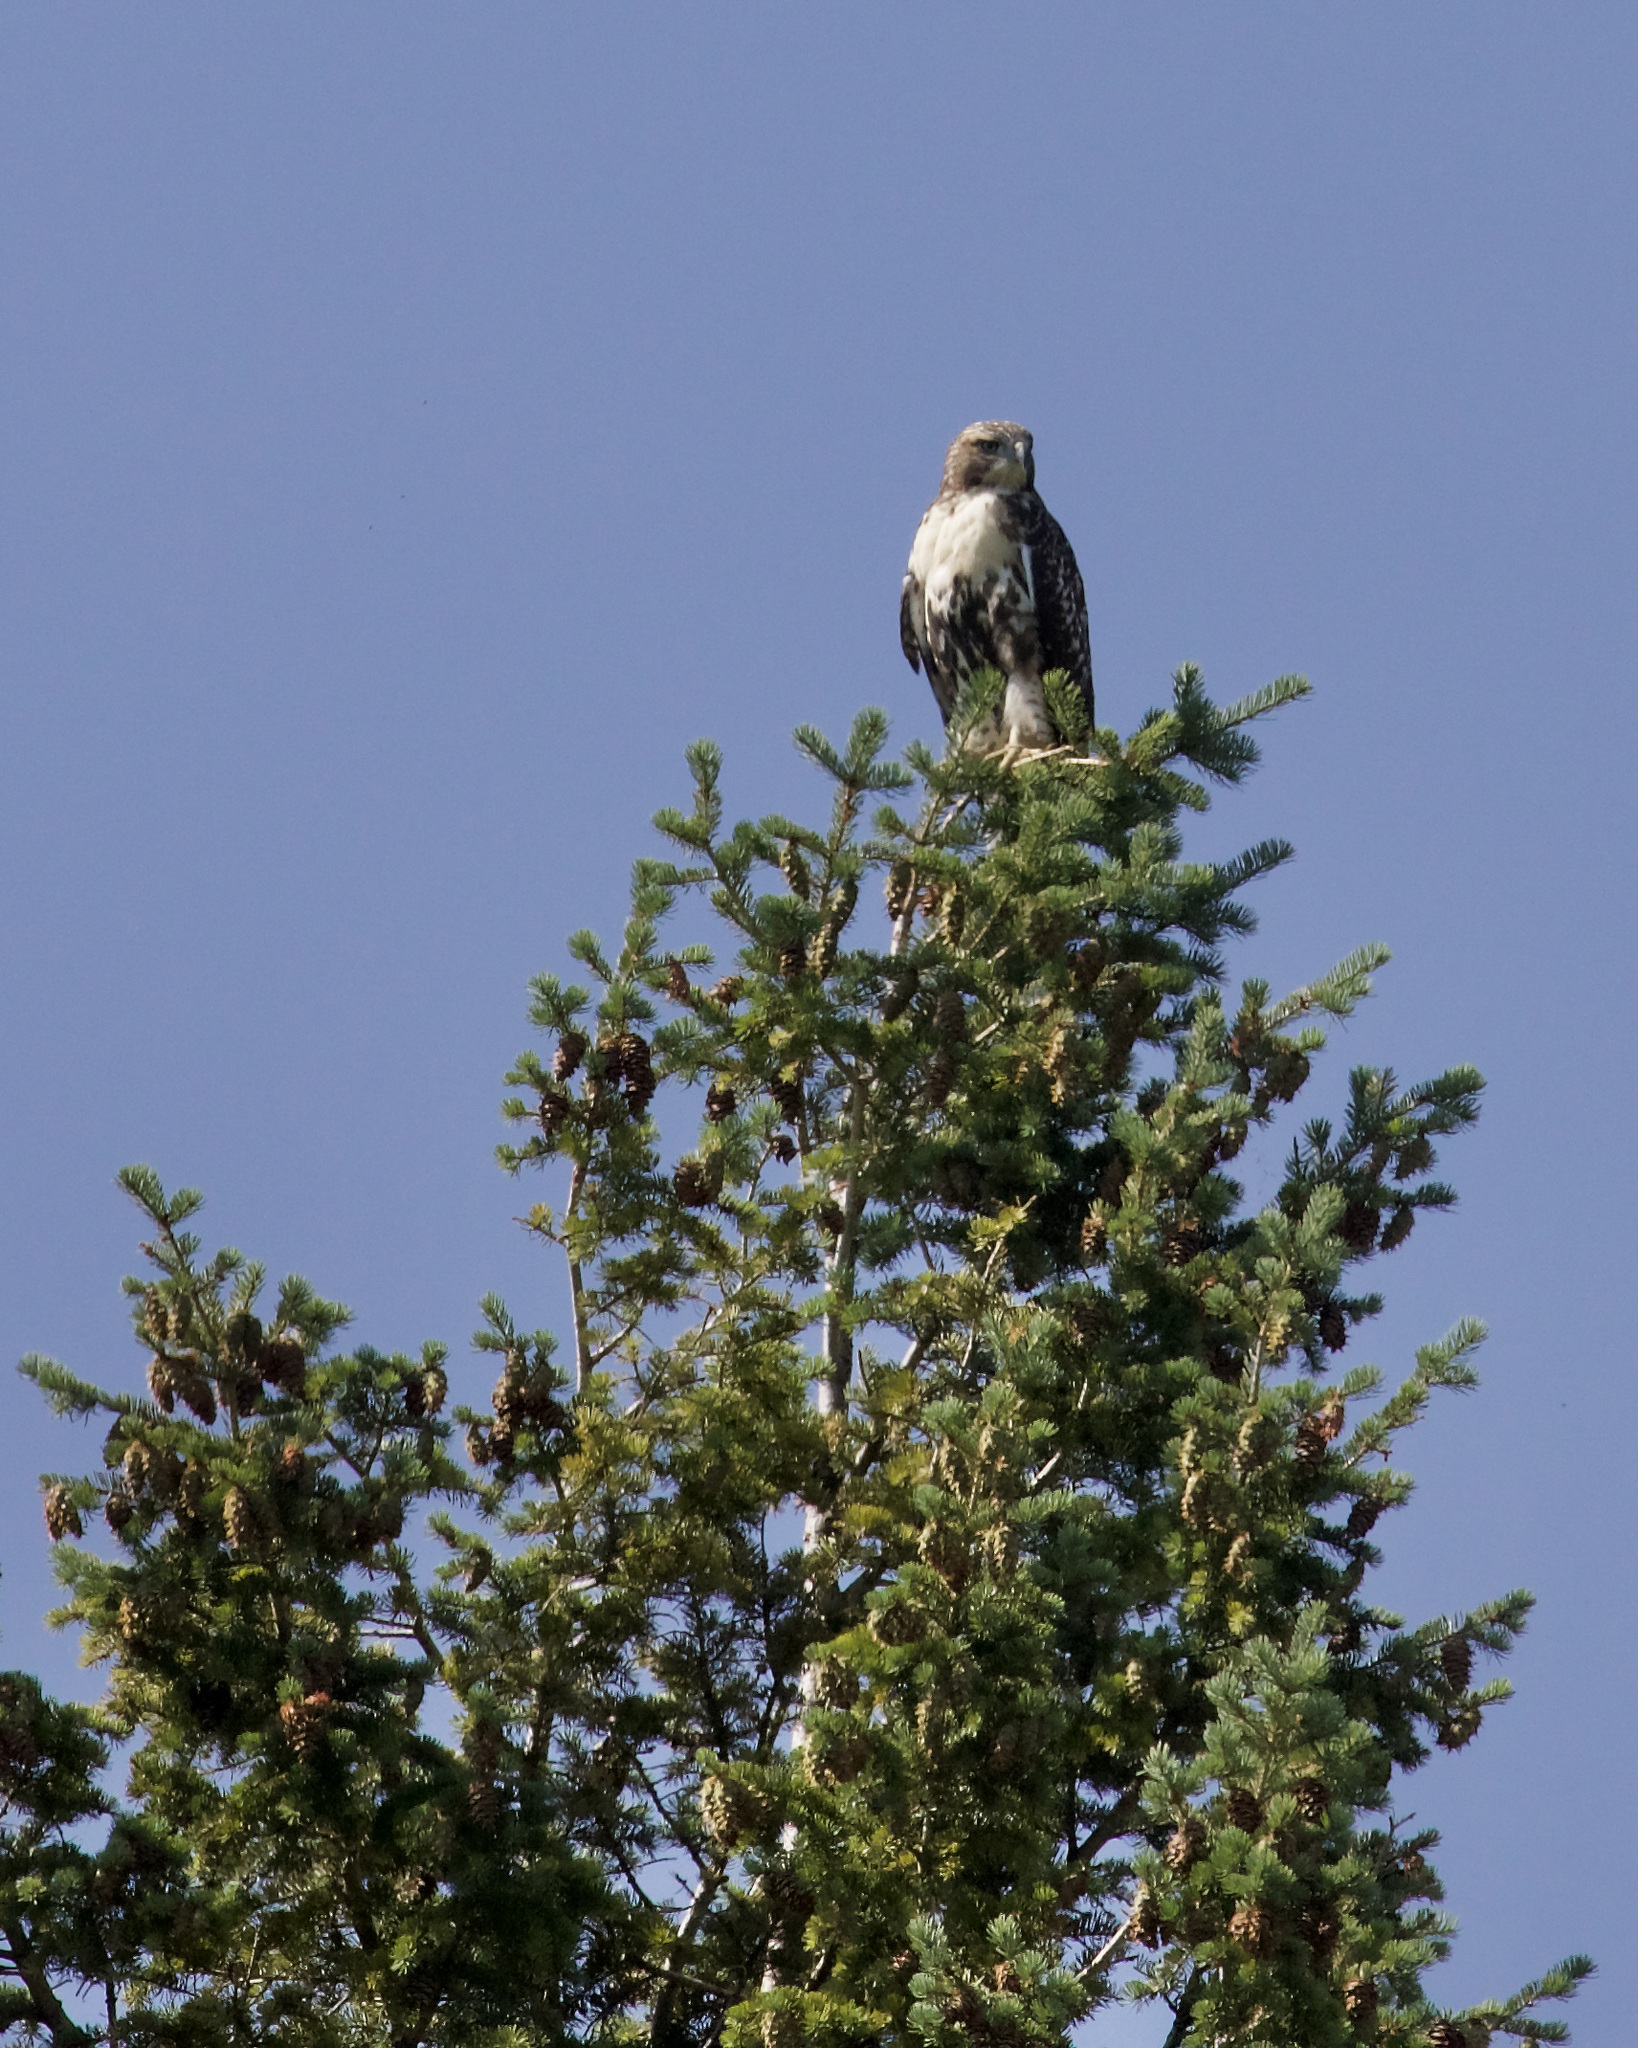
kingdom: Animalia
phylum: Chordata
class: Aves
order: Accipitriformes
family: Accipitridae
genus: Buteo
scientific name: Buteo jamaicensis
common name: Red-tailed hawk
